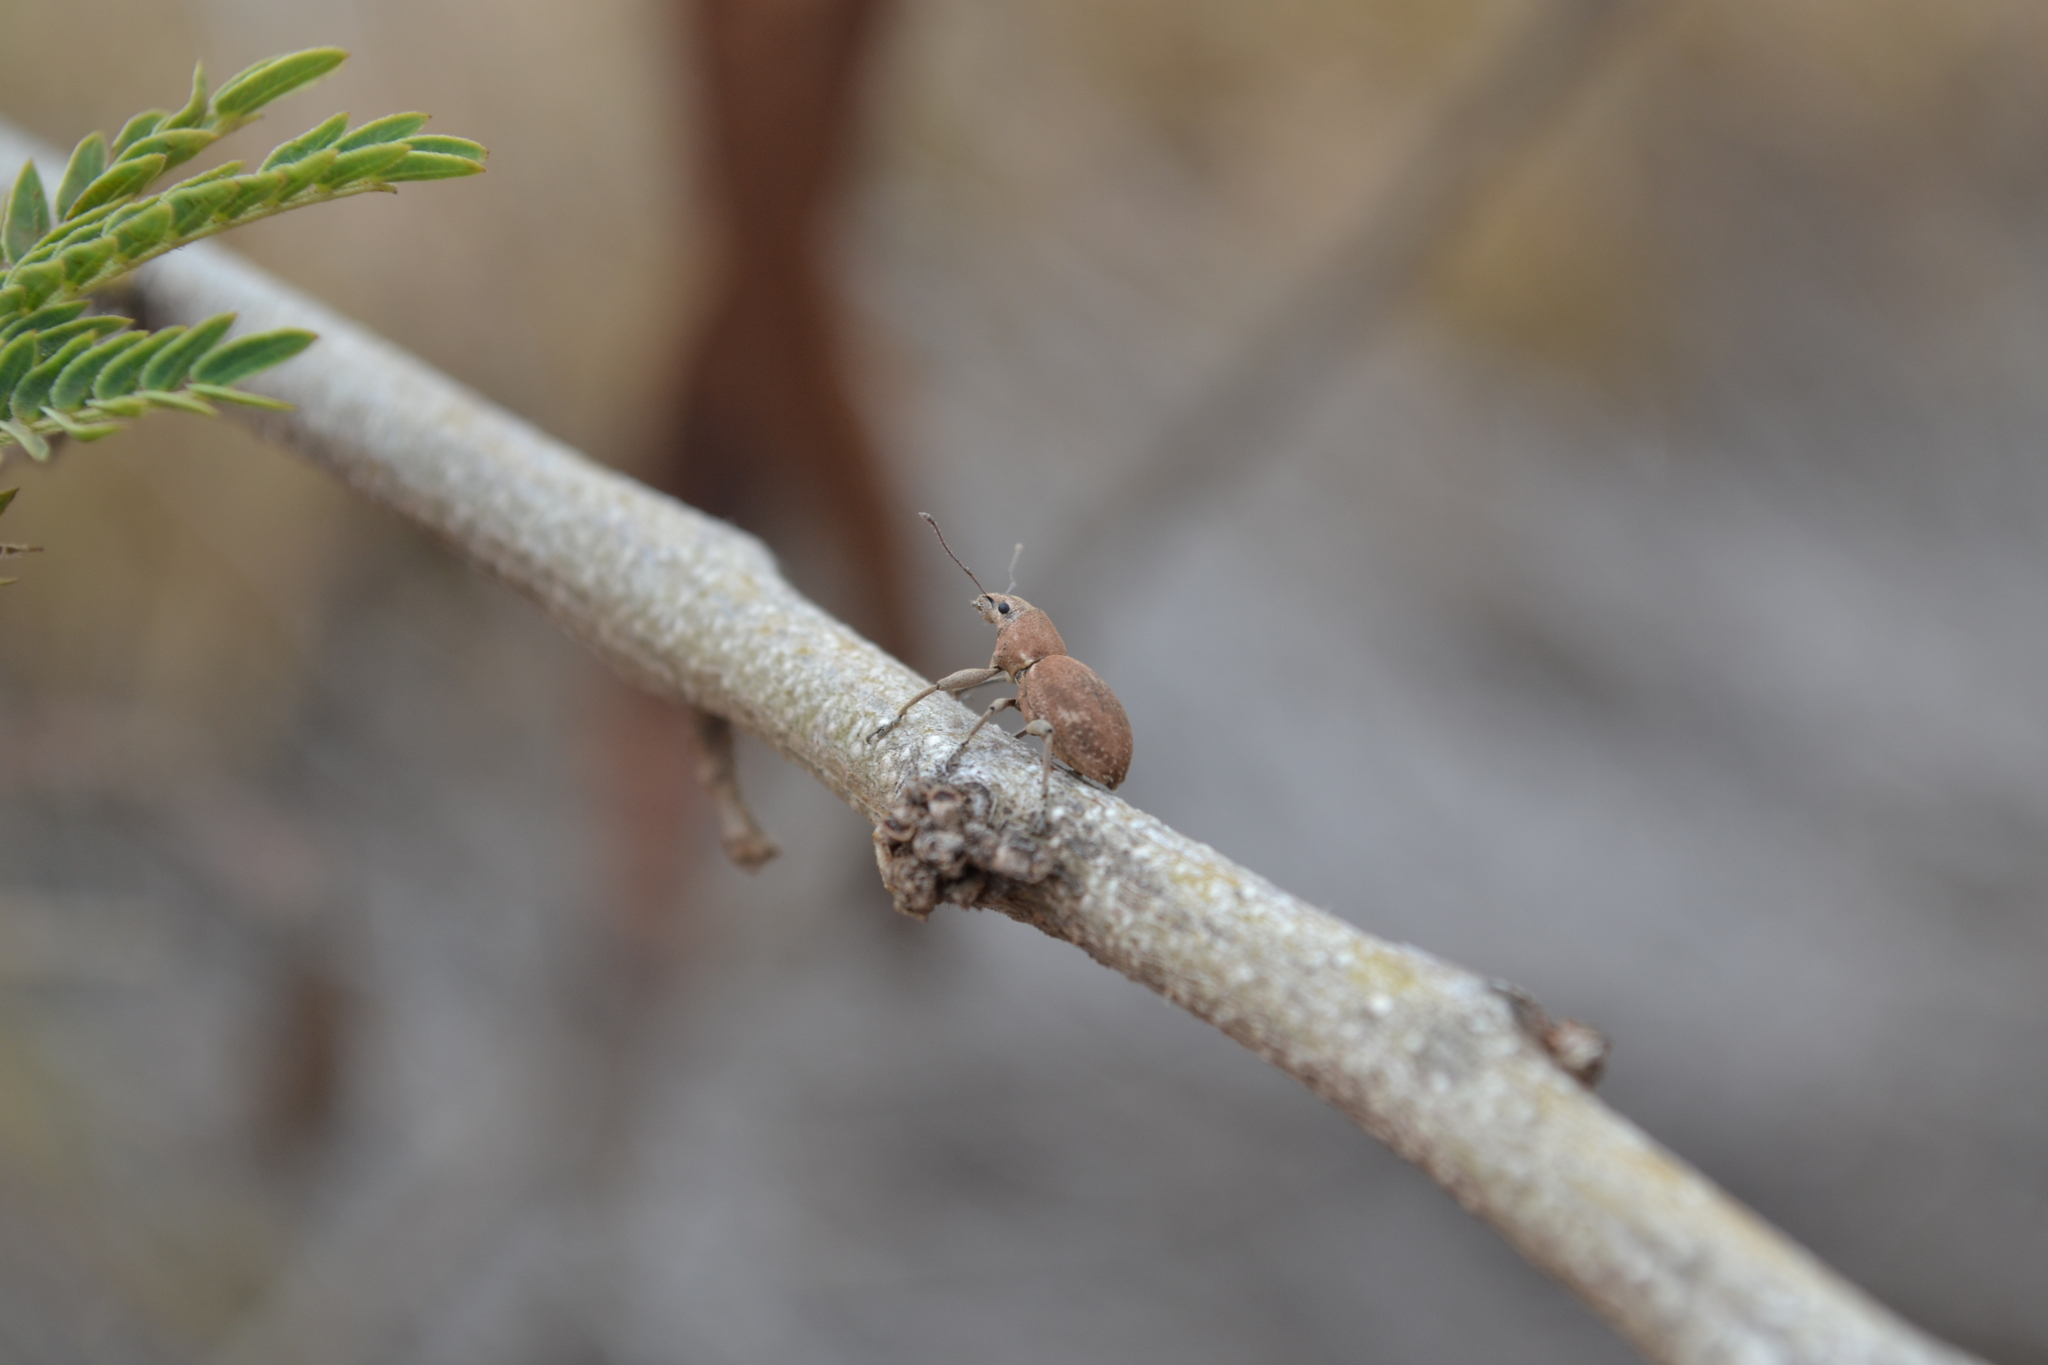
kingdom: Animalia
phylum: Arthropoda
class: Insecta
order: Coleoptera
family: Curculionidae
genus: Naupactus
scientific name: Naupactus cervinus
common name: Fuller rose beetle
